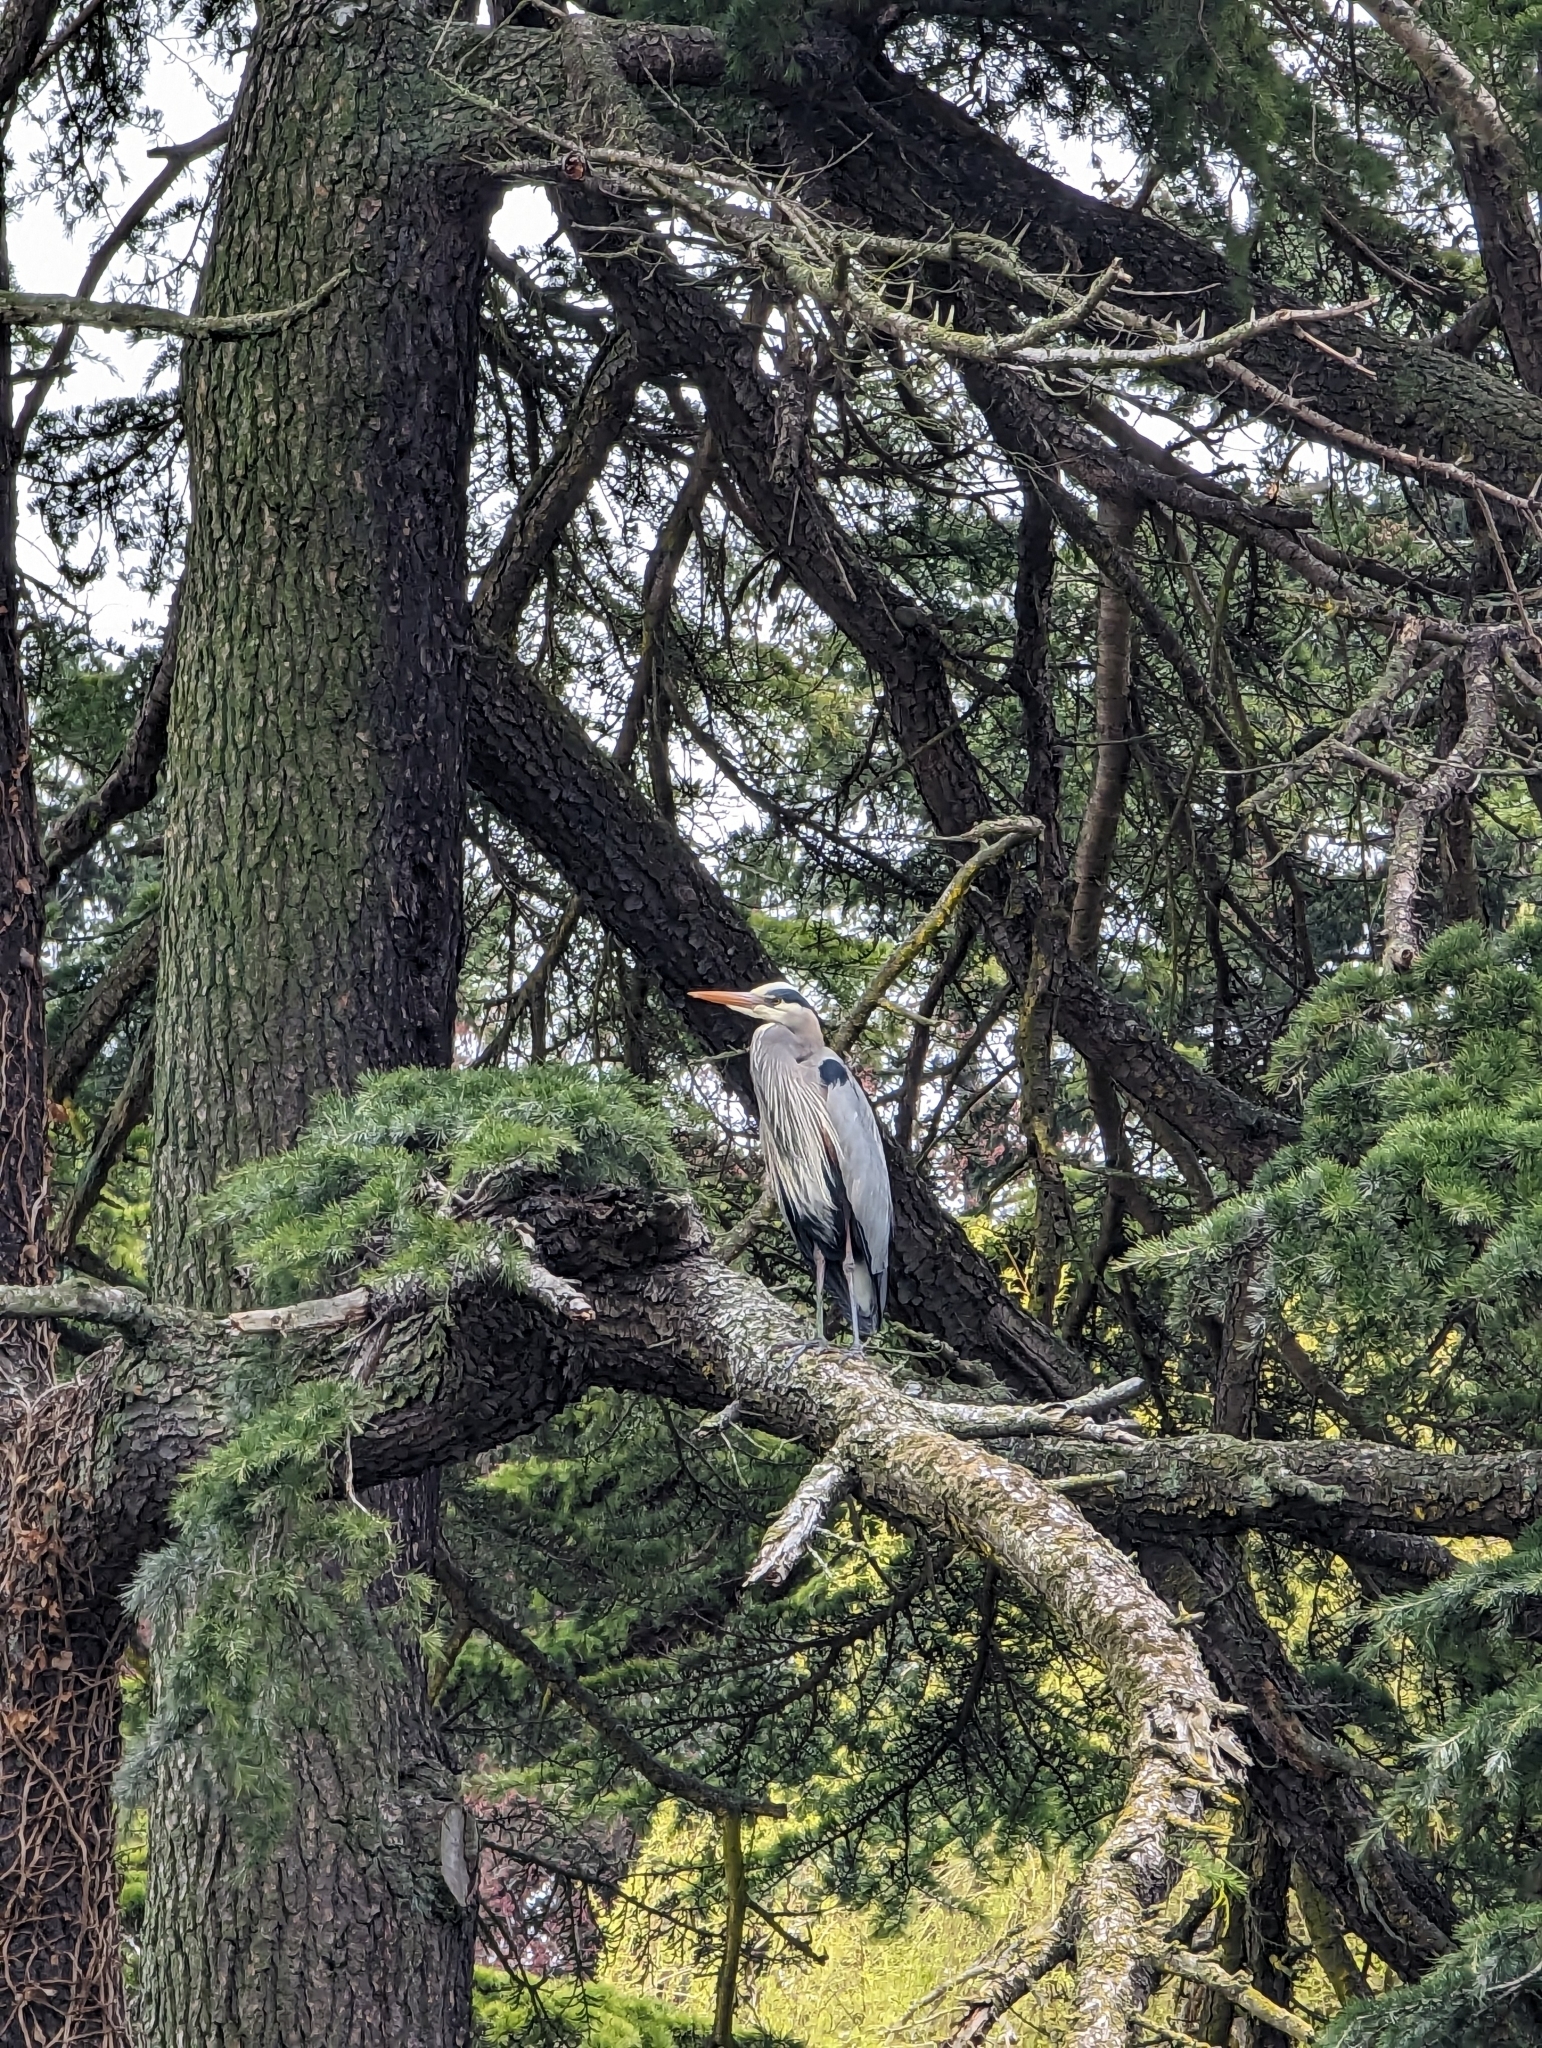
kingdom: Animalia
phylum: Chordata
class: Aves
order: Pelecaniformes
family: Ardeidae
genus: Ardea
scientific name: Ardea herodias
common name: Great blue heron
